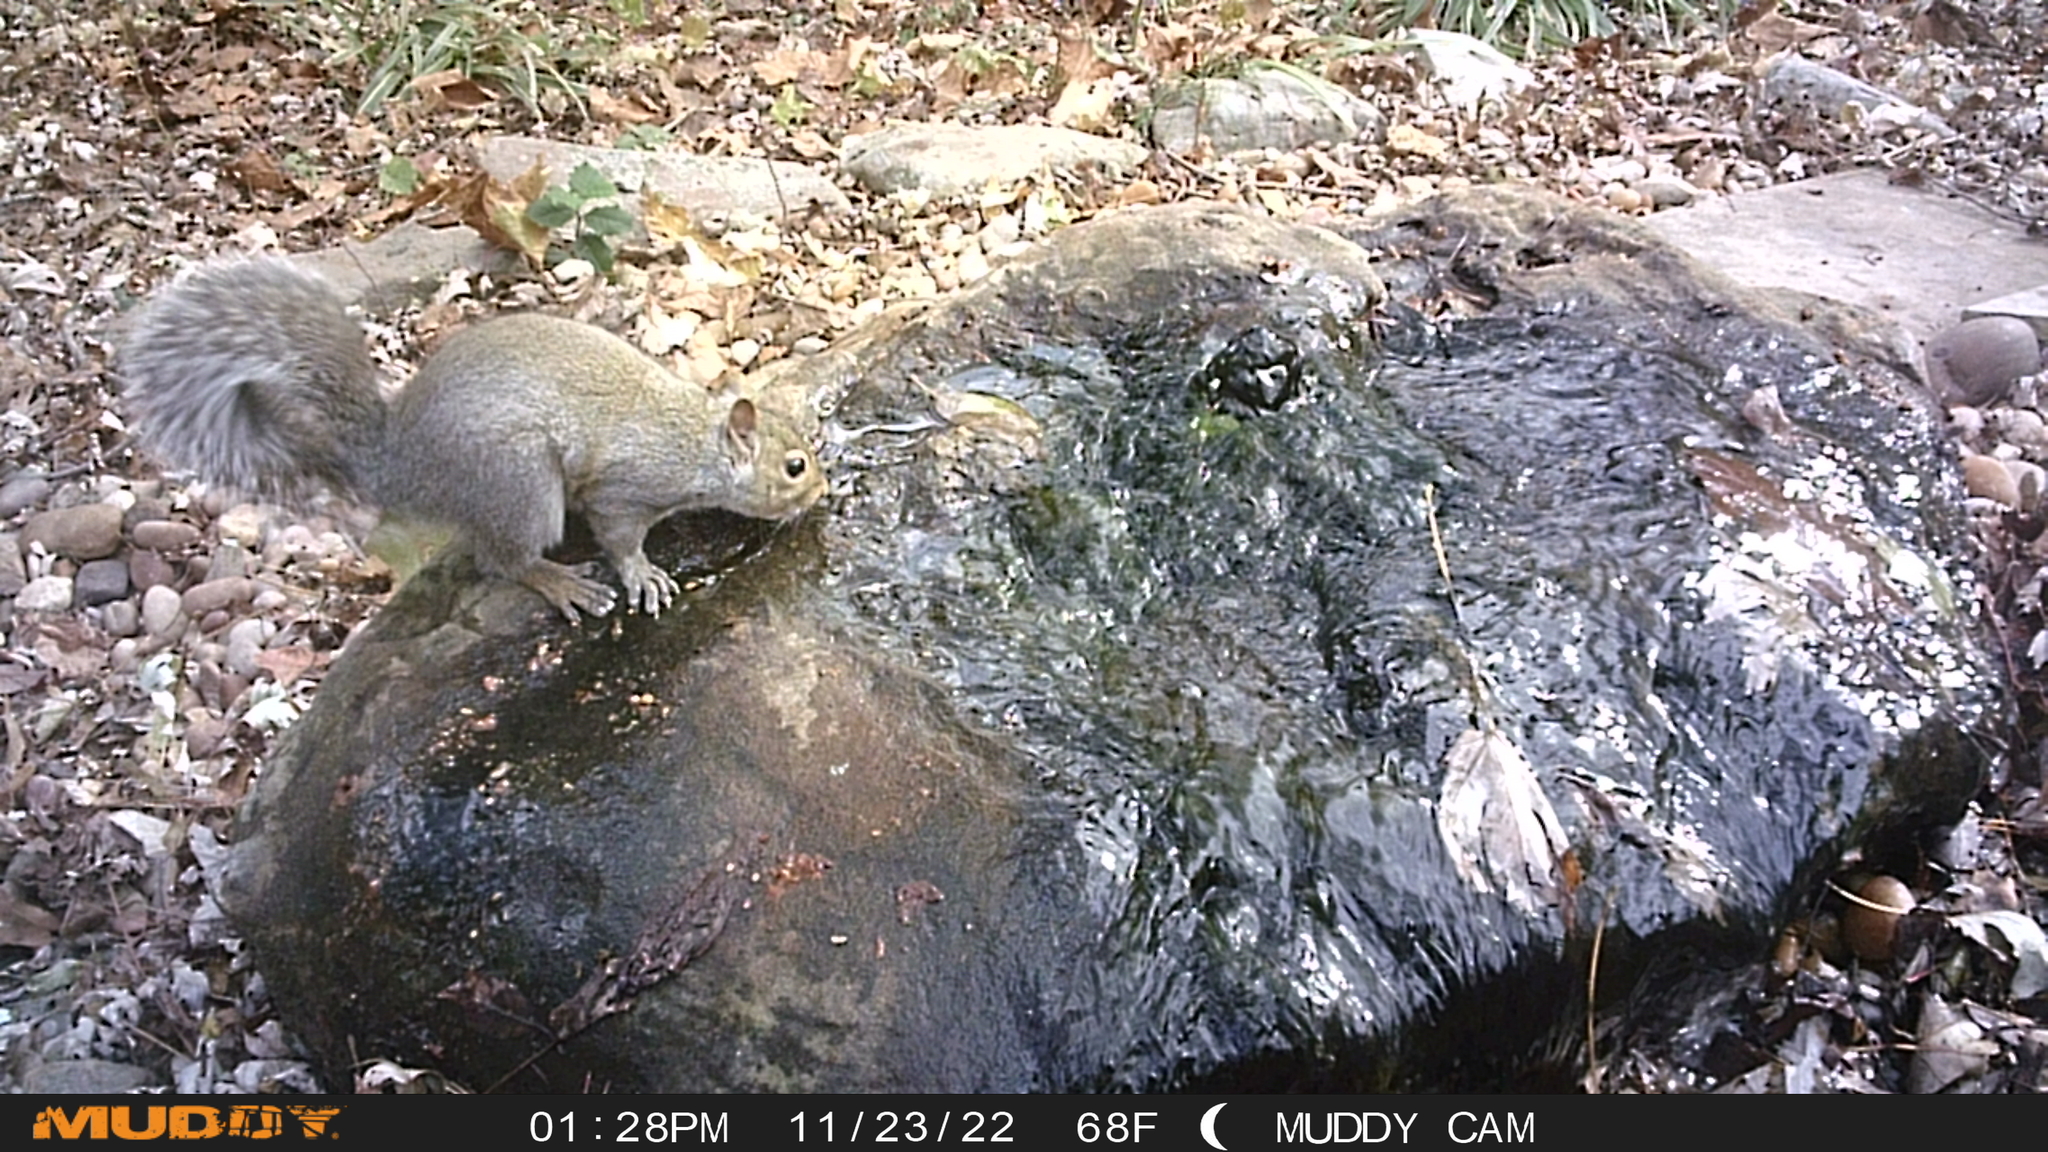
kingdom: Animalia
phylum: Chordata
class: Mammalia
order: Rodentia
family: Sciuridae
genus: Sciurus
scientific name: Sciurus carolinensis
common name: Eastern gray squirrel
